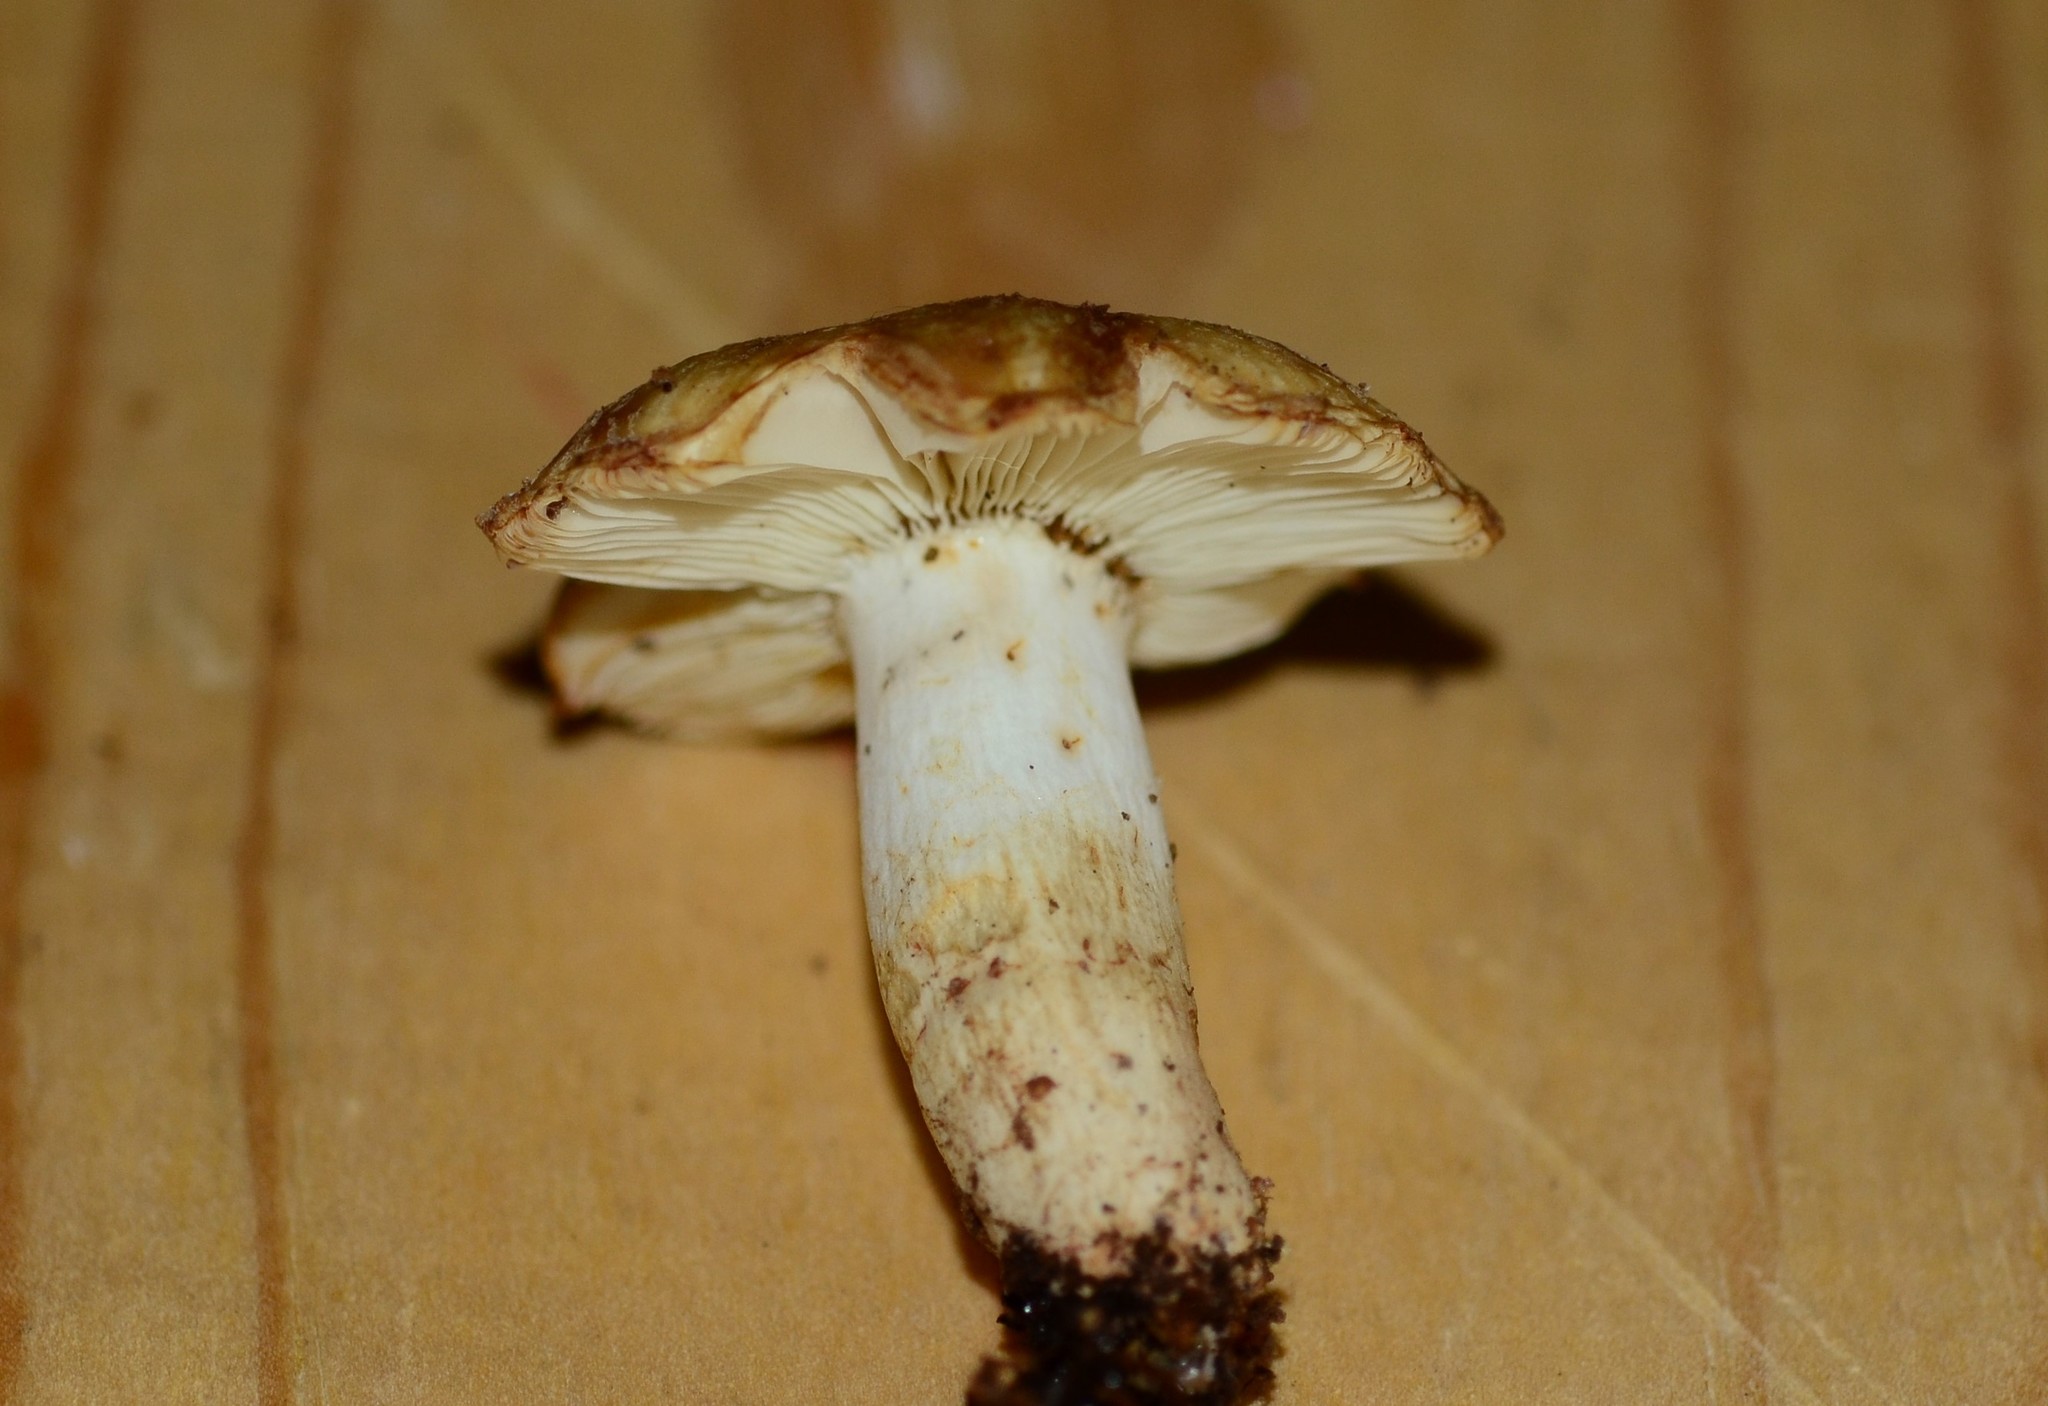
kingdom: Fungi
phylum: Basidiomycota
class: Agaricomycetes
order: Russulales
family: Russulaceae
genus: Russula
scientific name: Russula granulata
